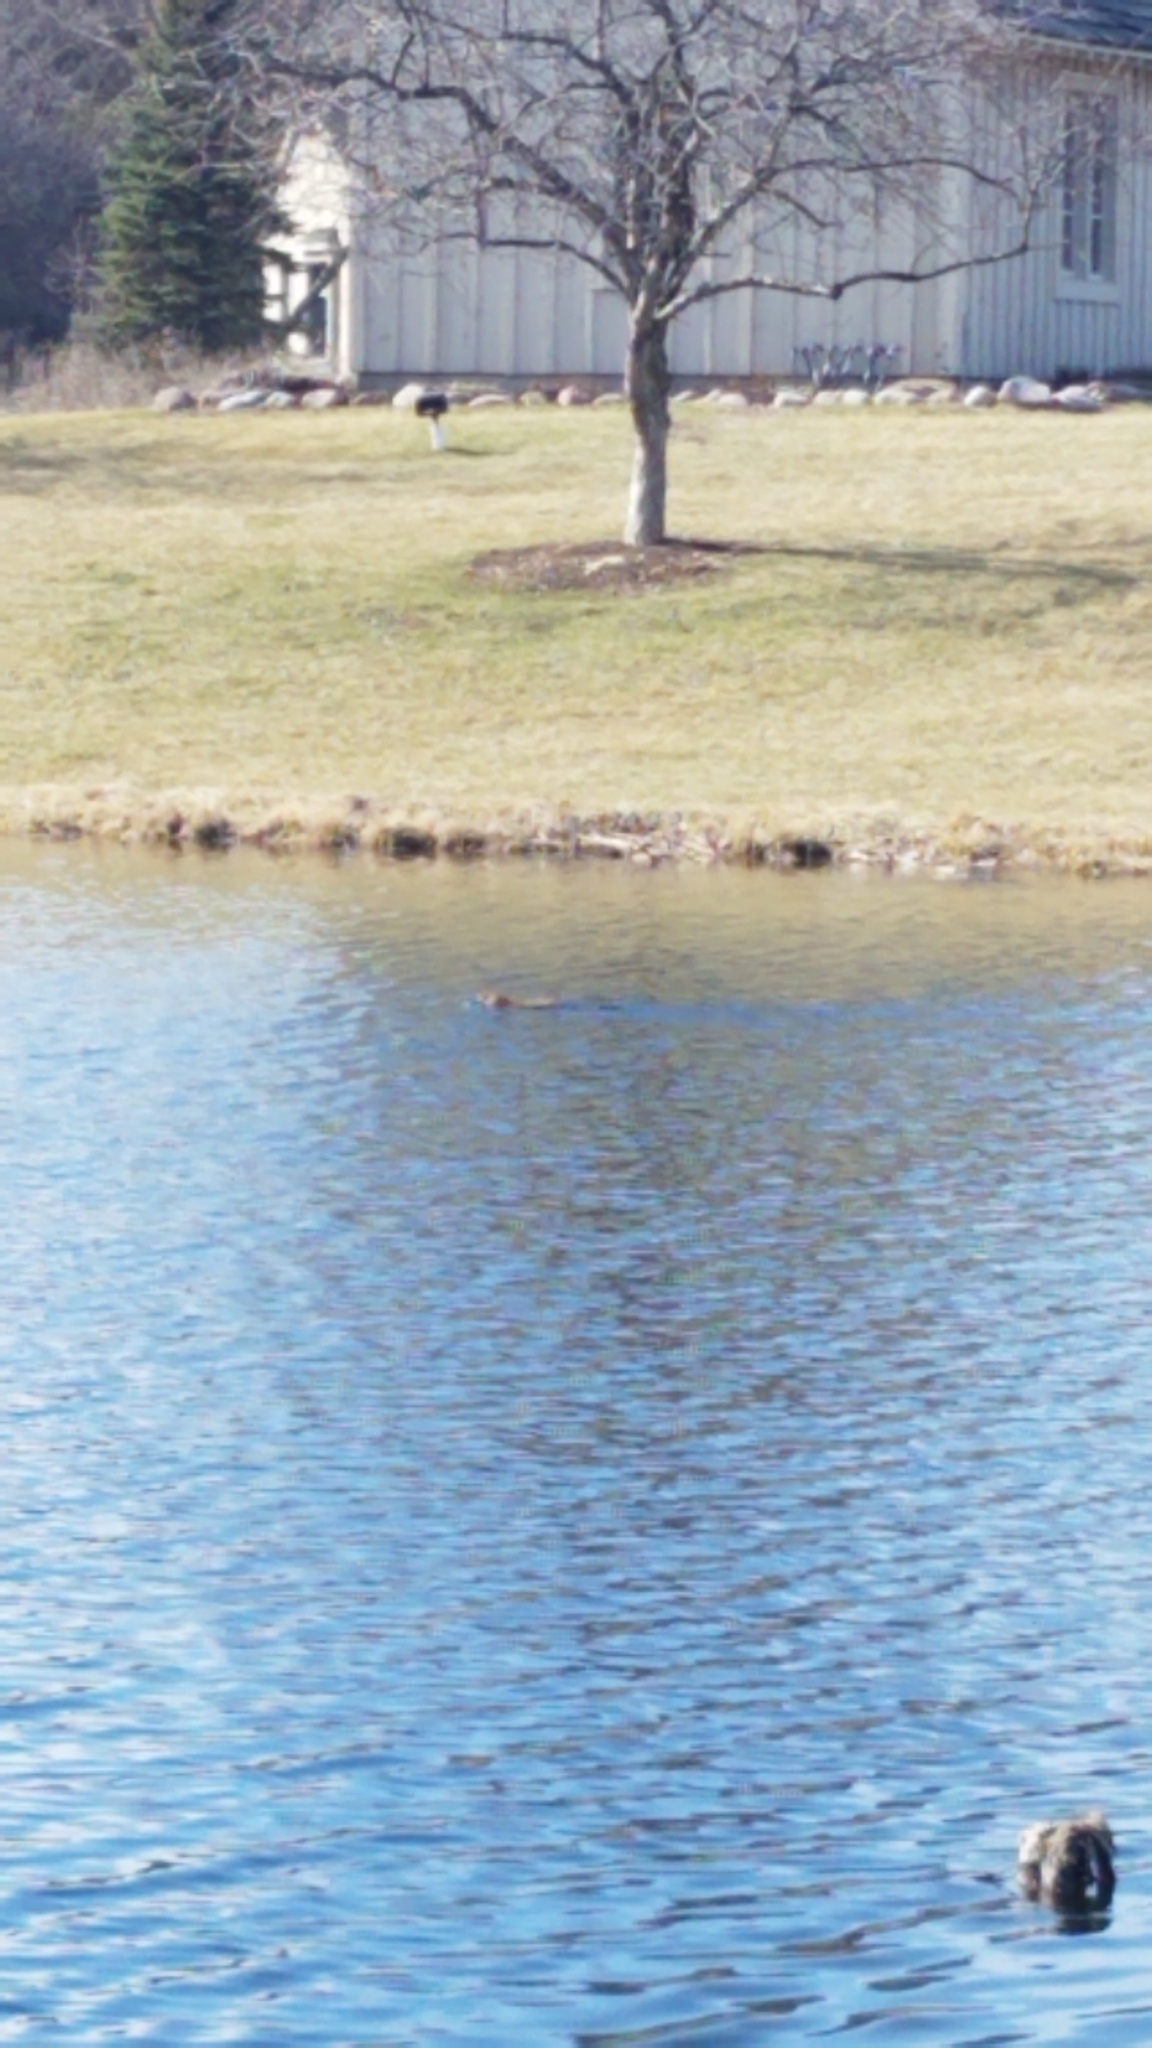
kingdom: Animalia
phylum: Chordata
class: Mammalia
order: Rodentia
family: Cricetidae
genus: Ondatra
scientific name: Ondatra zibethicus
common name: Muskrat
